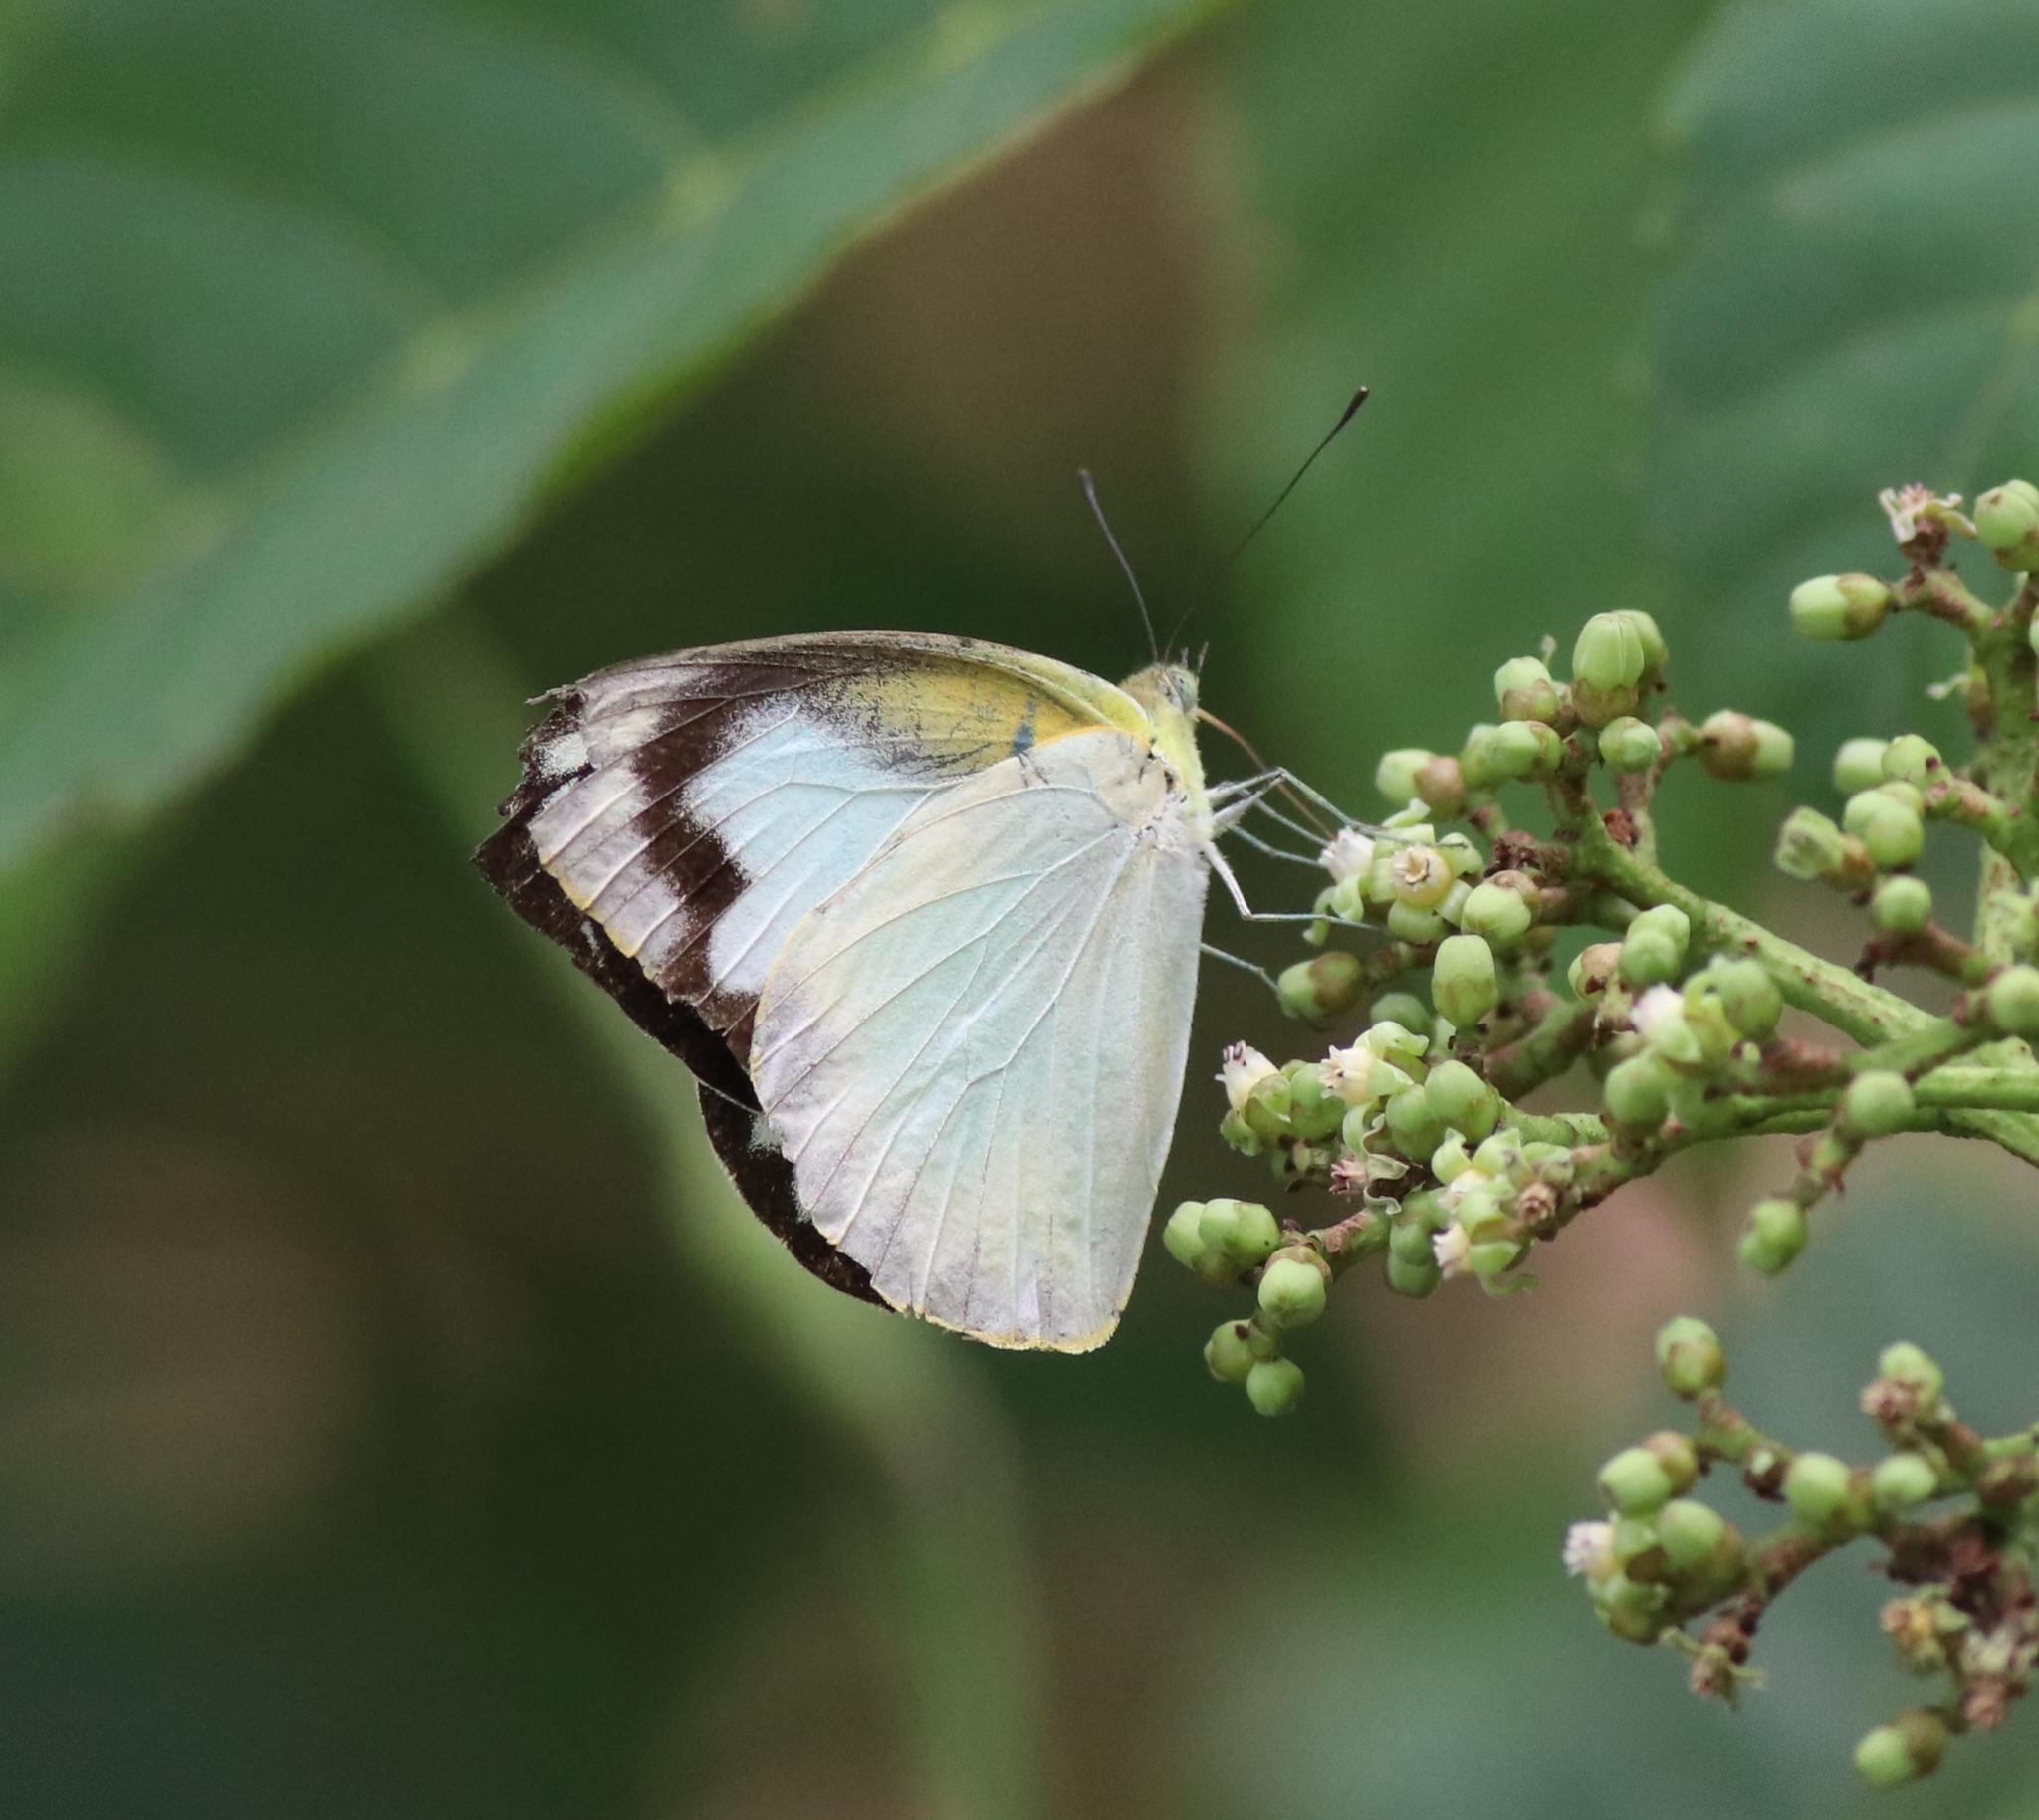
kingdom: Animalia
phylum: Arthropoda
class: Insecta
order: Lepidoptera
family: Pieridae
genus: Appias
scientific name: Appias albina
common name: Common albatross
